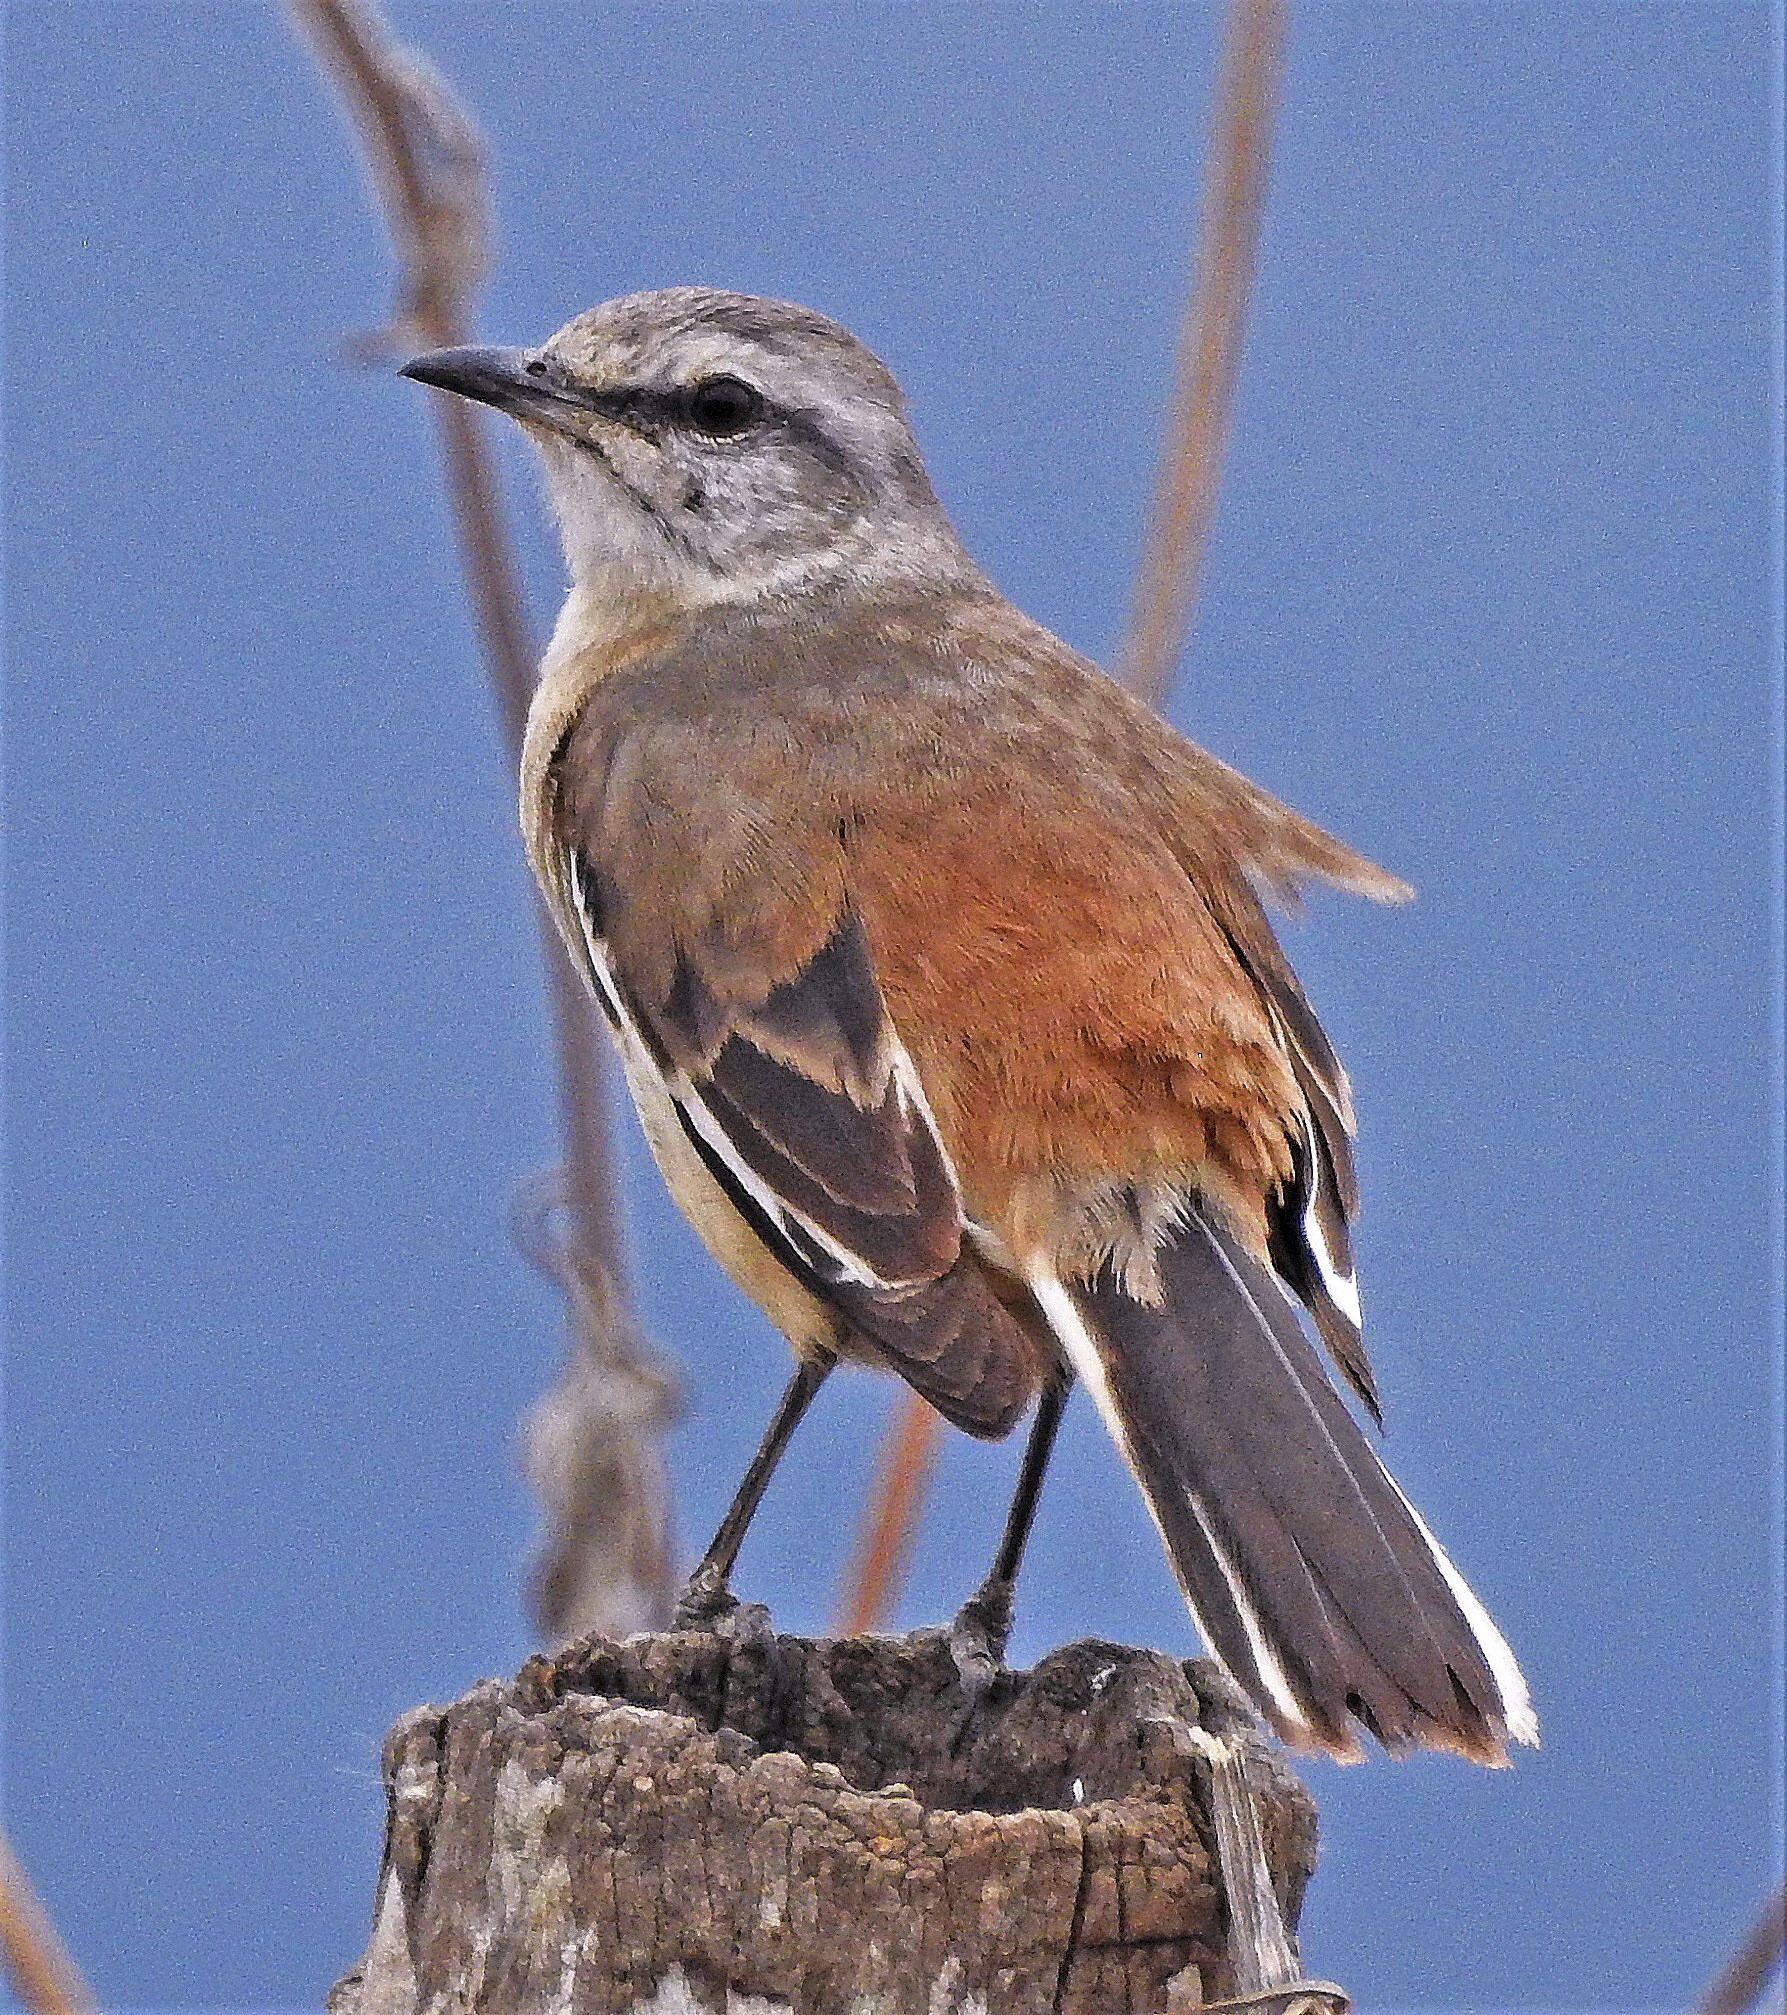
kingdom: Animalia
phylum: Chordata
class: Aves
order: Passeriformes
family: Mimidae
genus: Mimus
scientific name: Mimus triurus
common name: White-banded mockingbird
